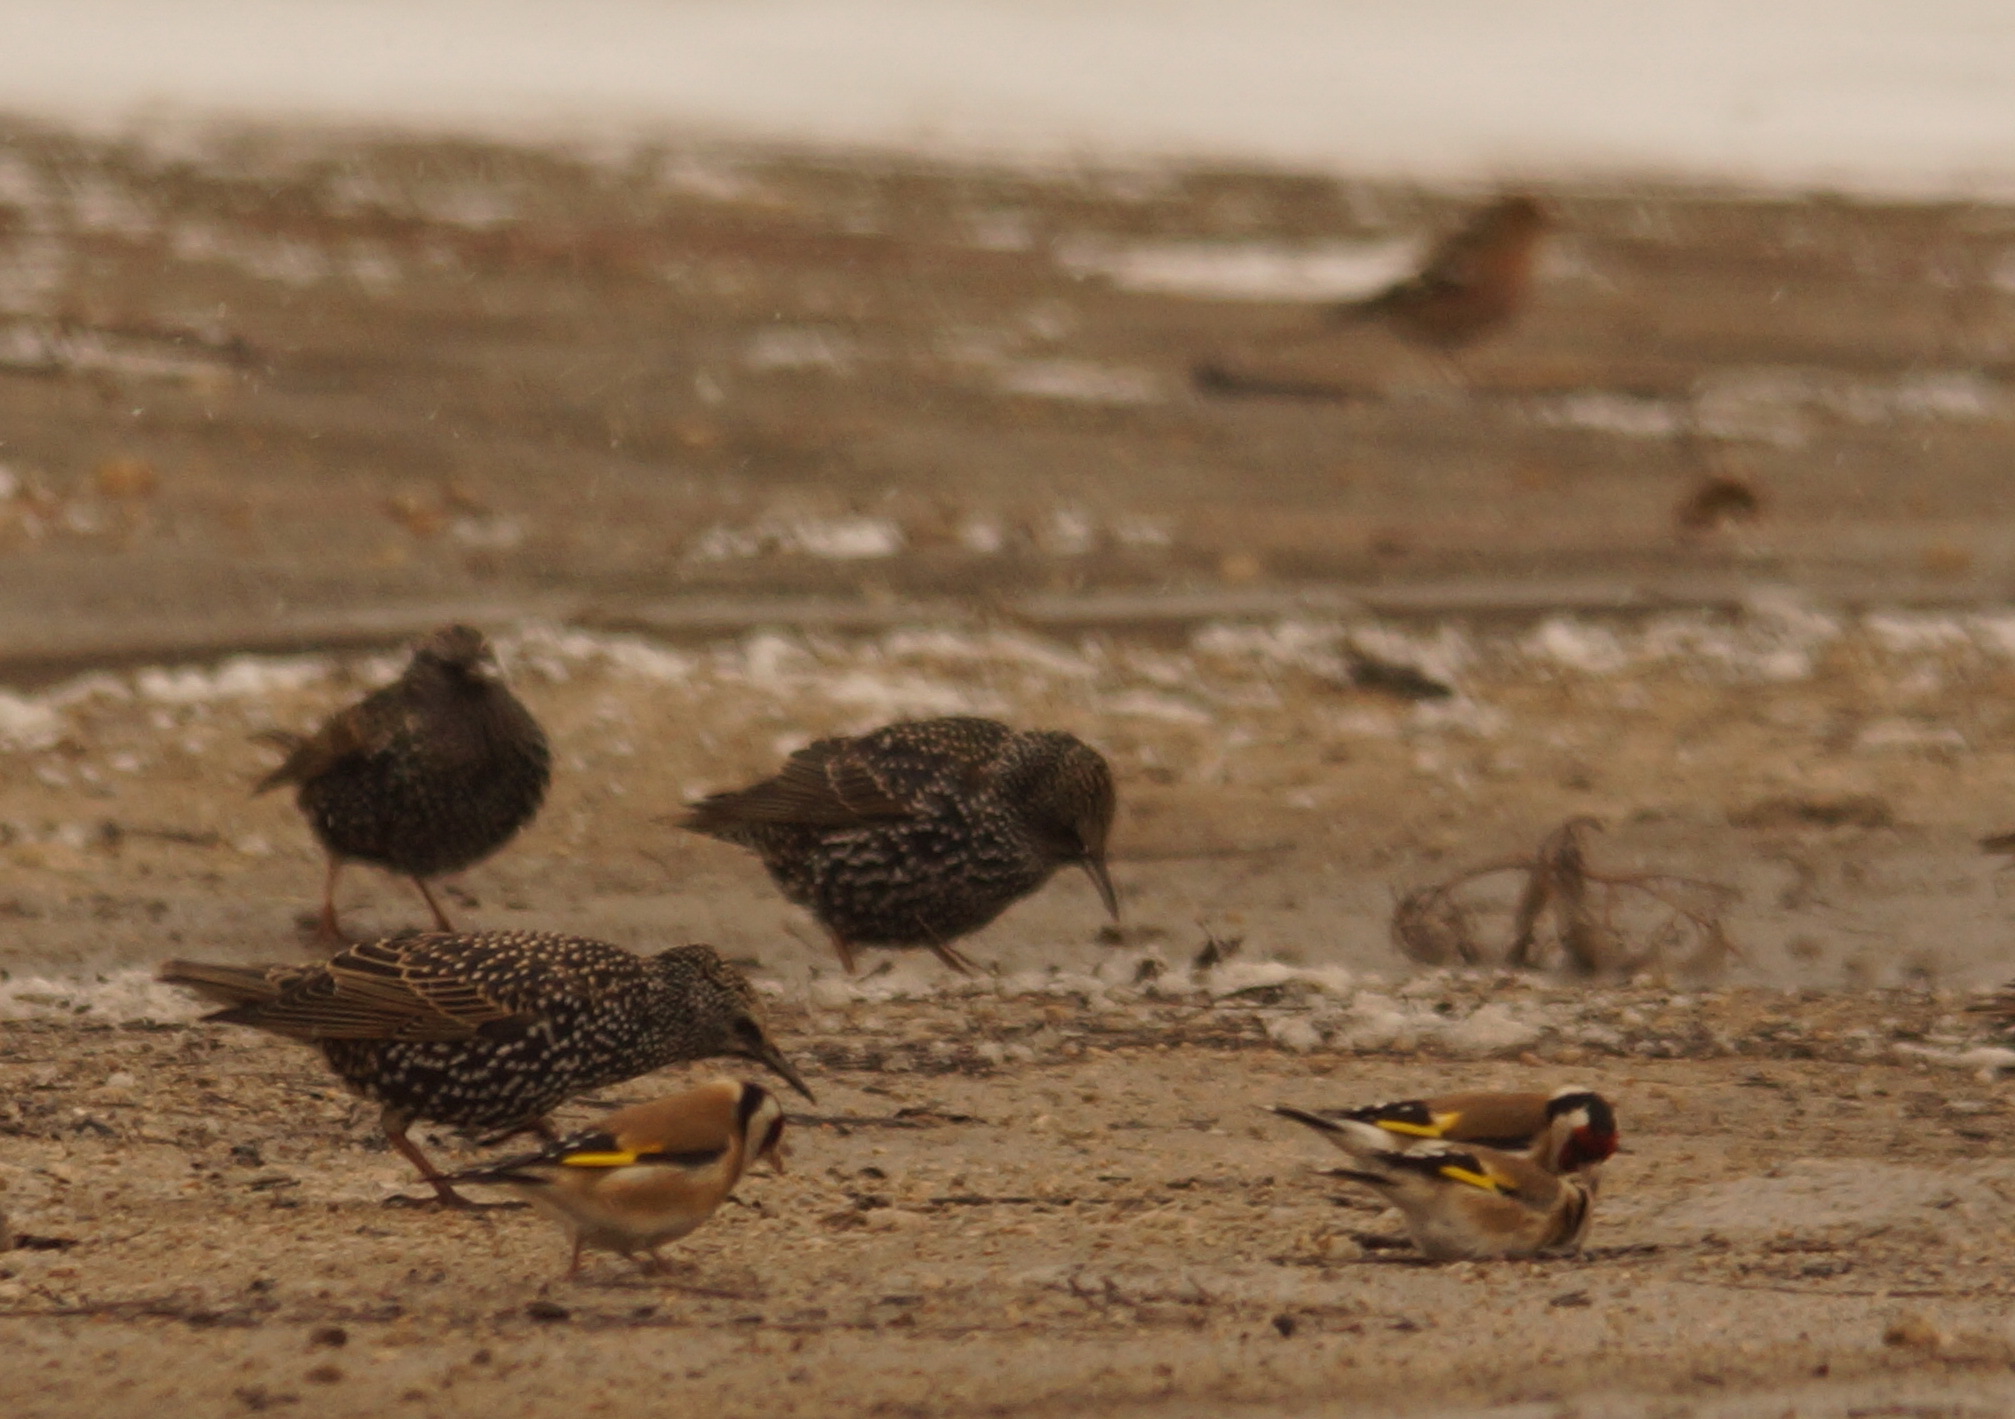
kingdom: Animalia
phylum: Chordata
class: Aves
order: Passeriformes
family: Sturnidae
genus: Sturnus
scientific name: Sturnus vulgaris
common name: Common starling
